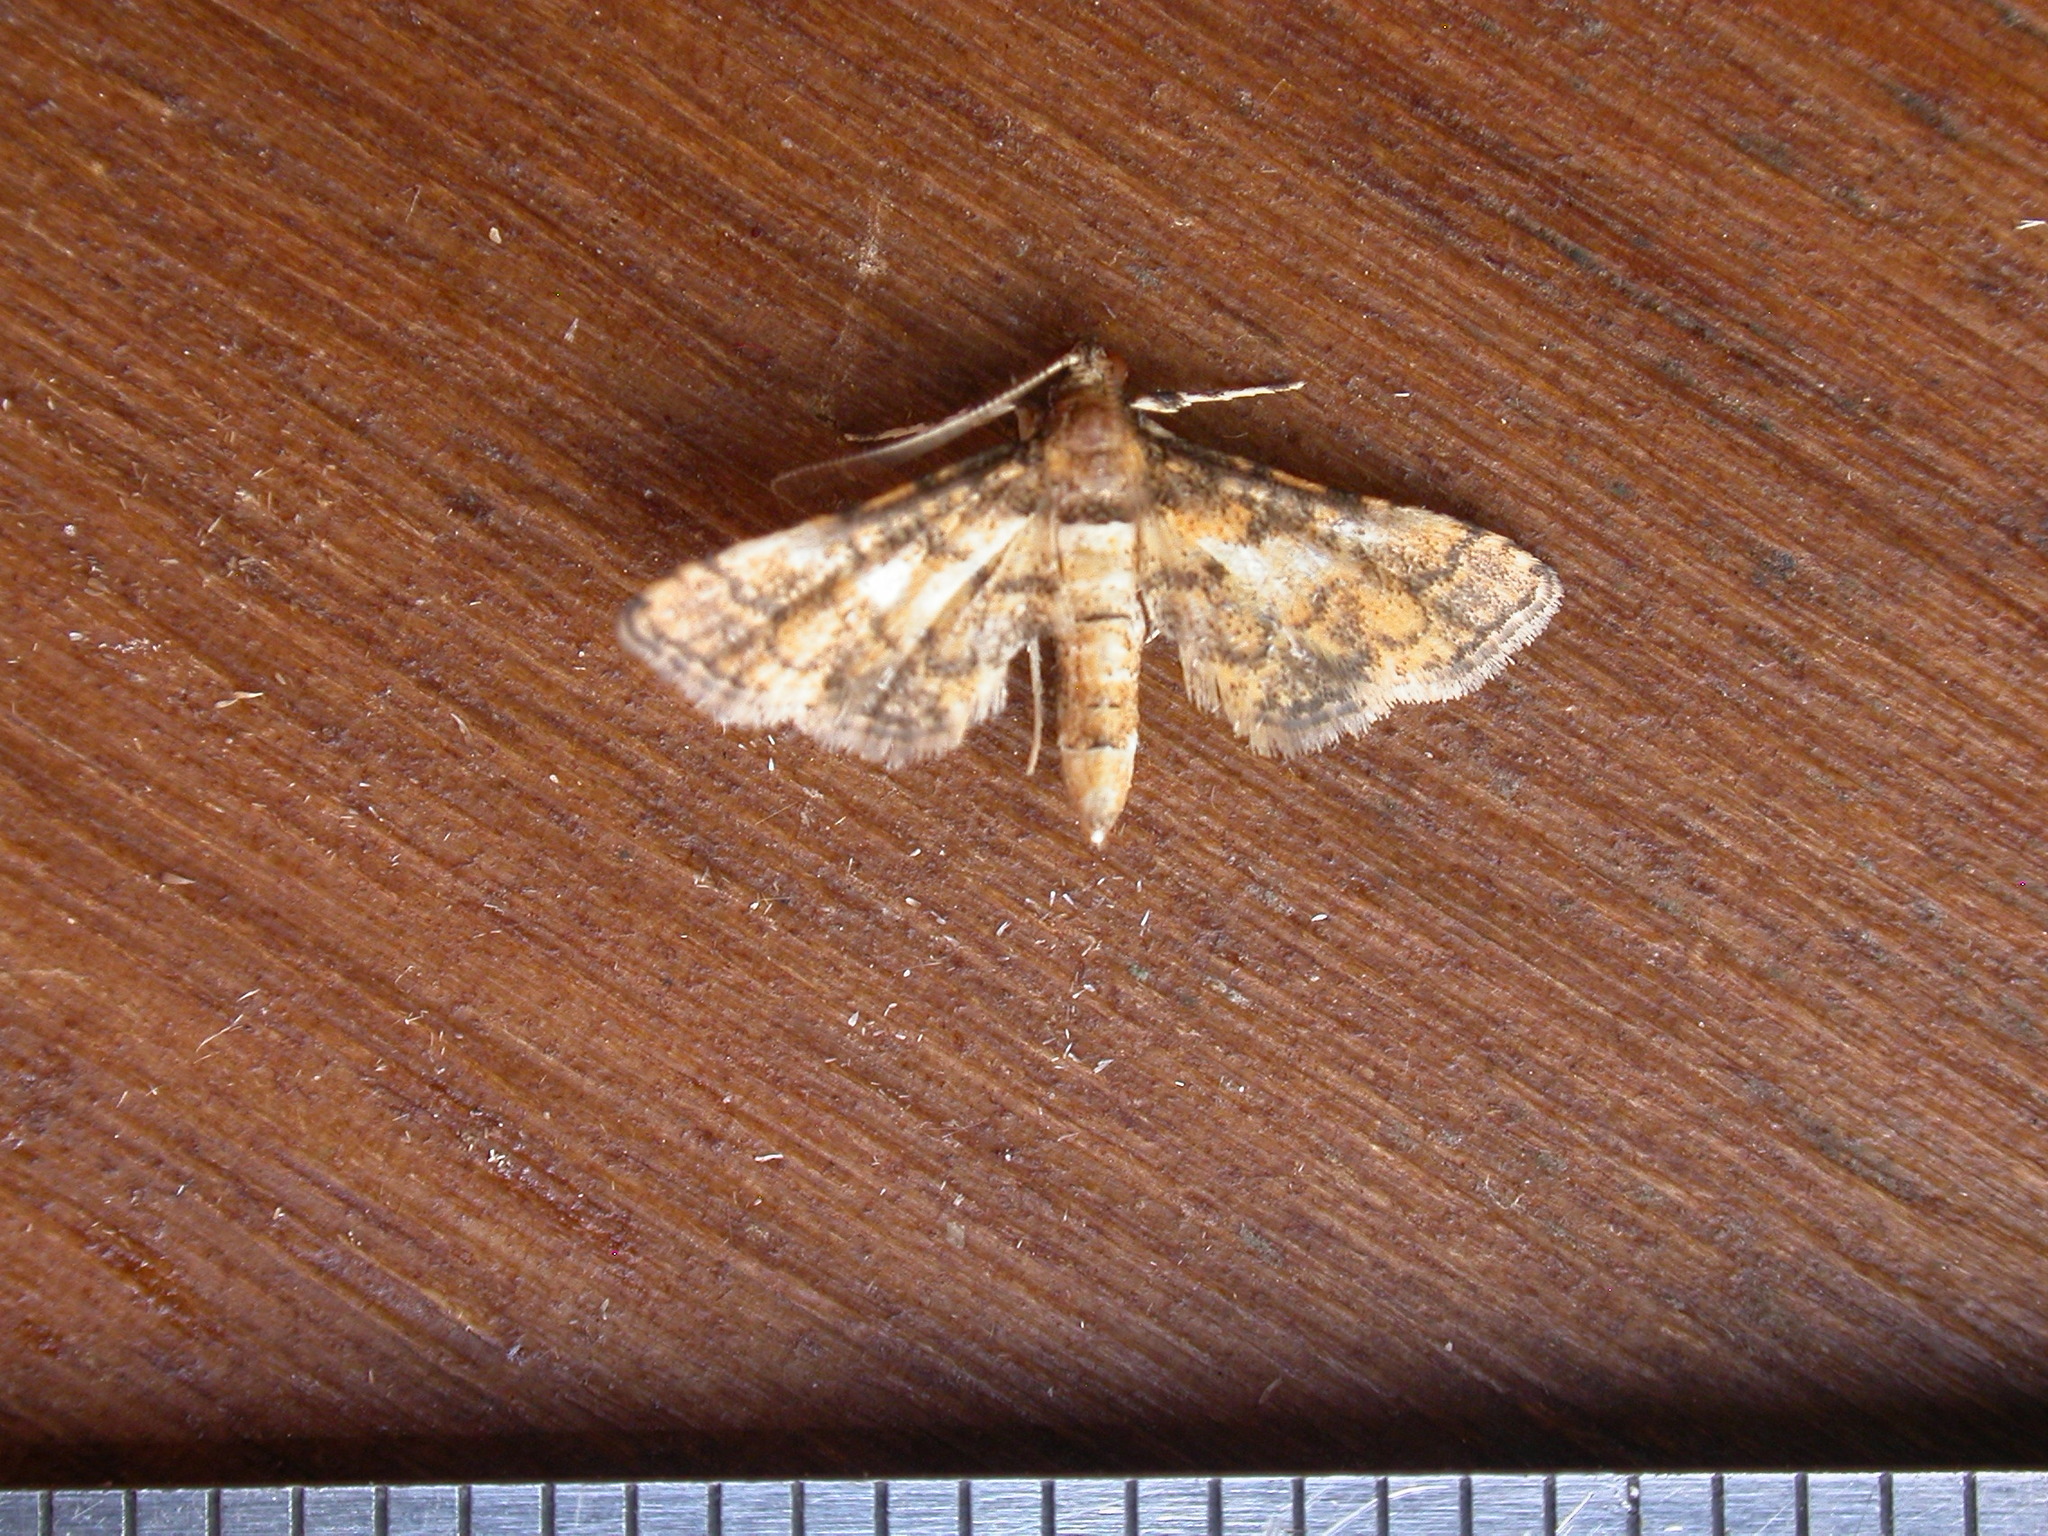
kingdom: Animalia
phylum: Arthropoda
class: Insecta
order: Lepidoptera
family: Crambidae
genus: Metasia
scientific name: Metasia tiasalis
